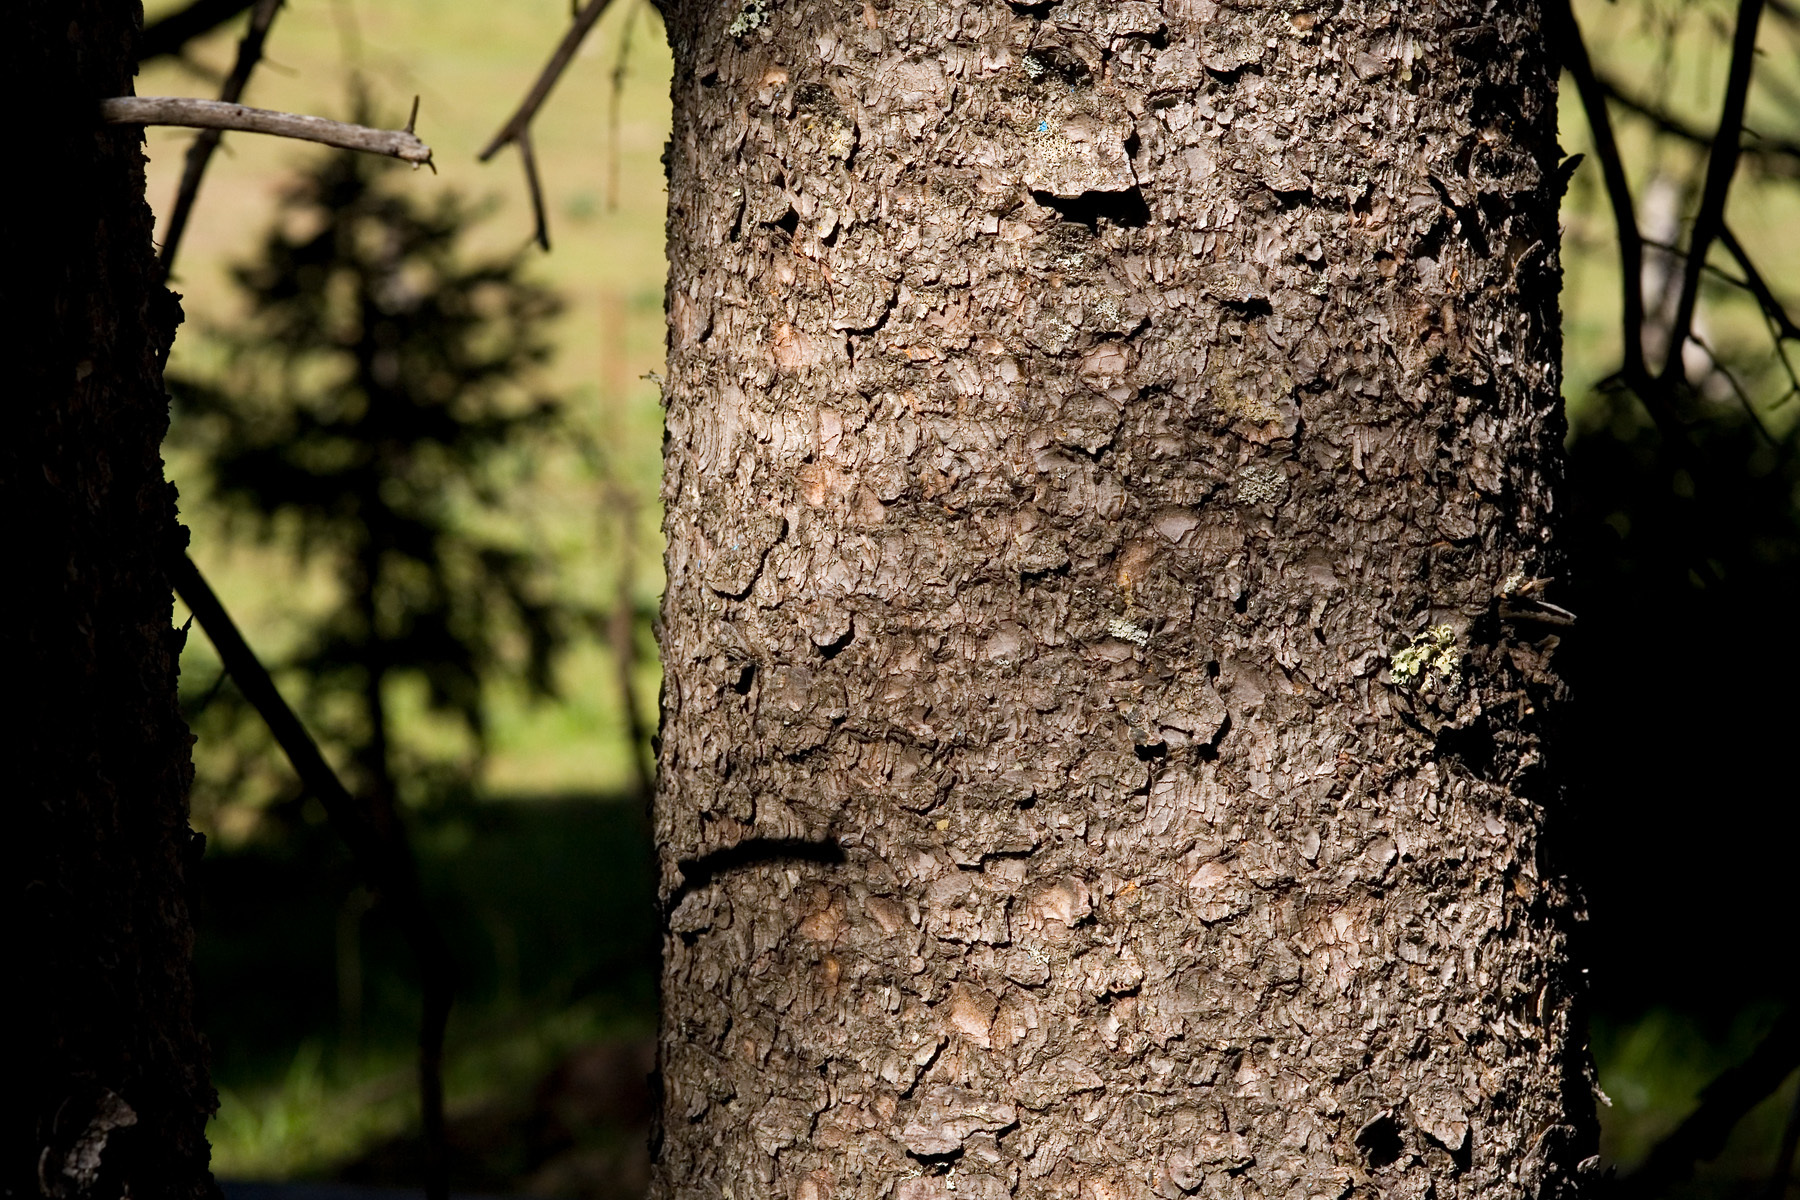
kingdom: Plantae
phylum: Tracheophyta
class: Pinopsida
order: Pinales
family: Pinaceae
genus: Picea
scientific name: Picea engelmannii
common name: Engelmann spruce
